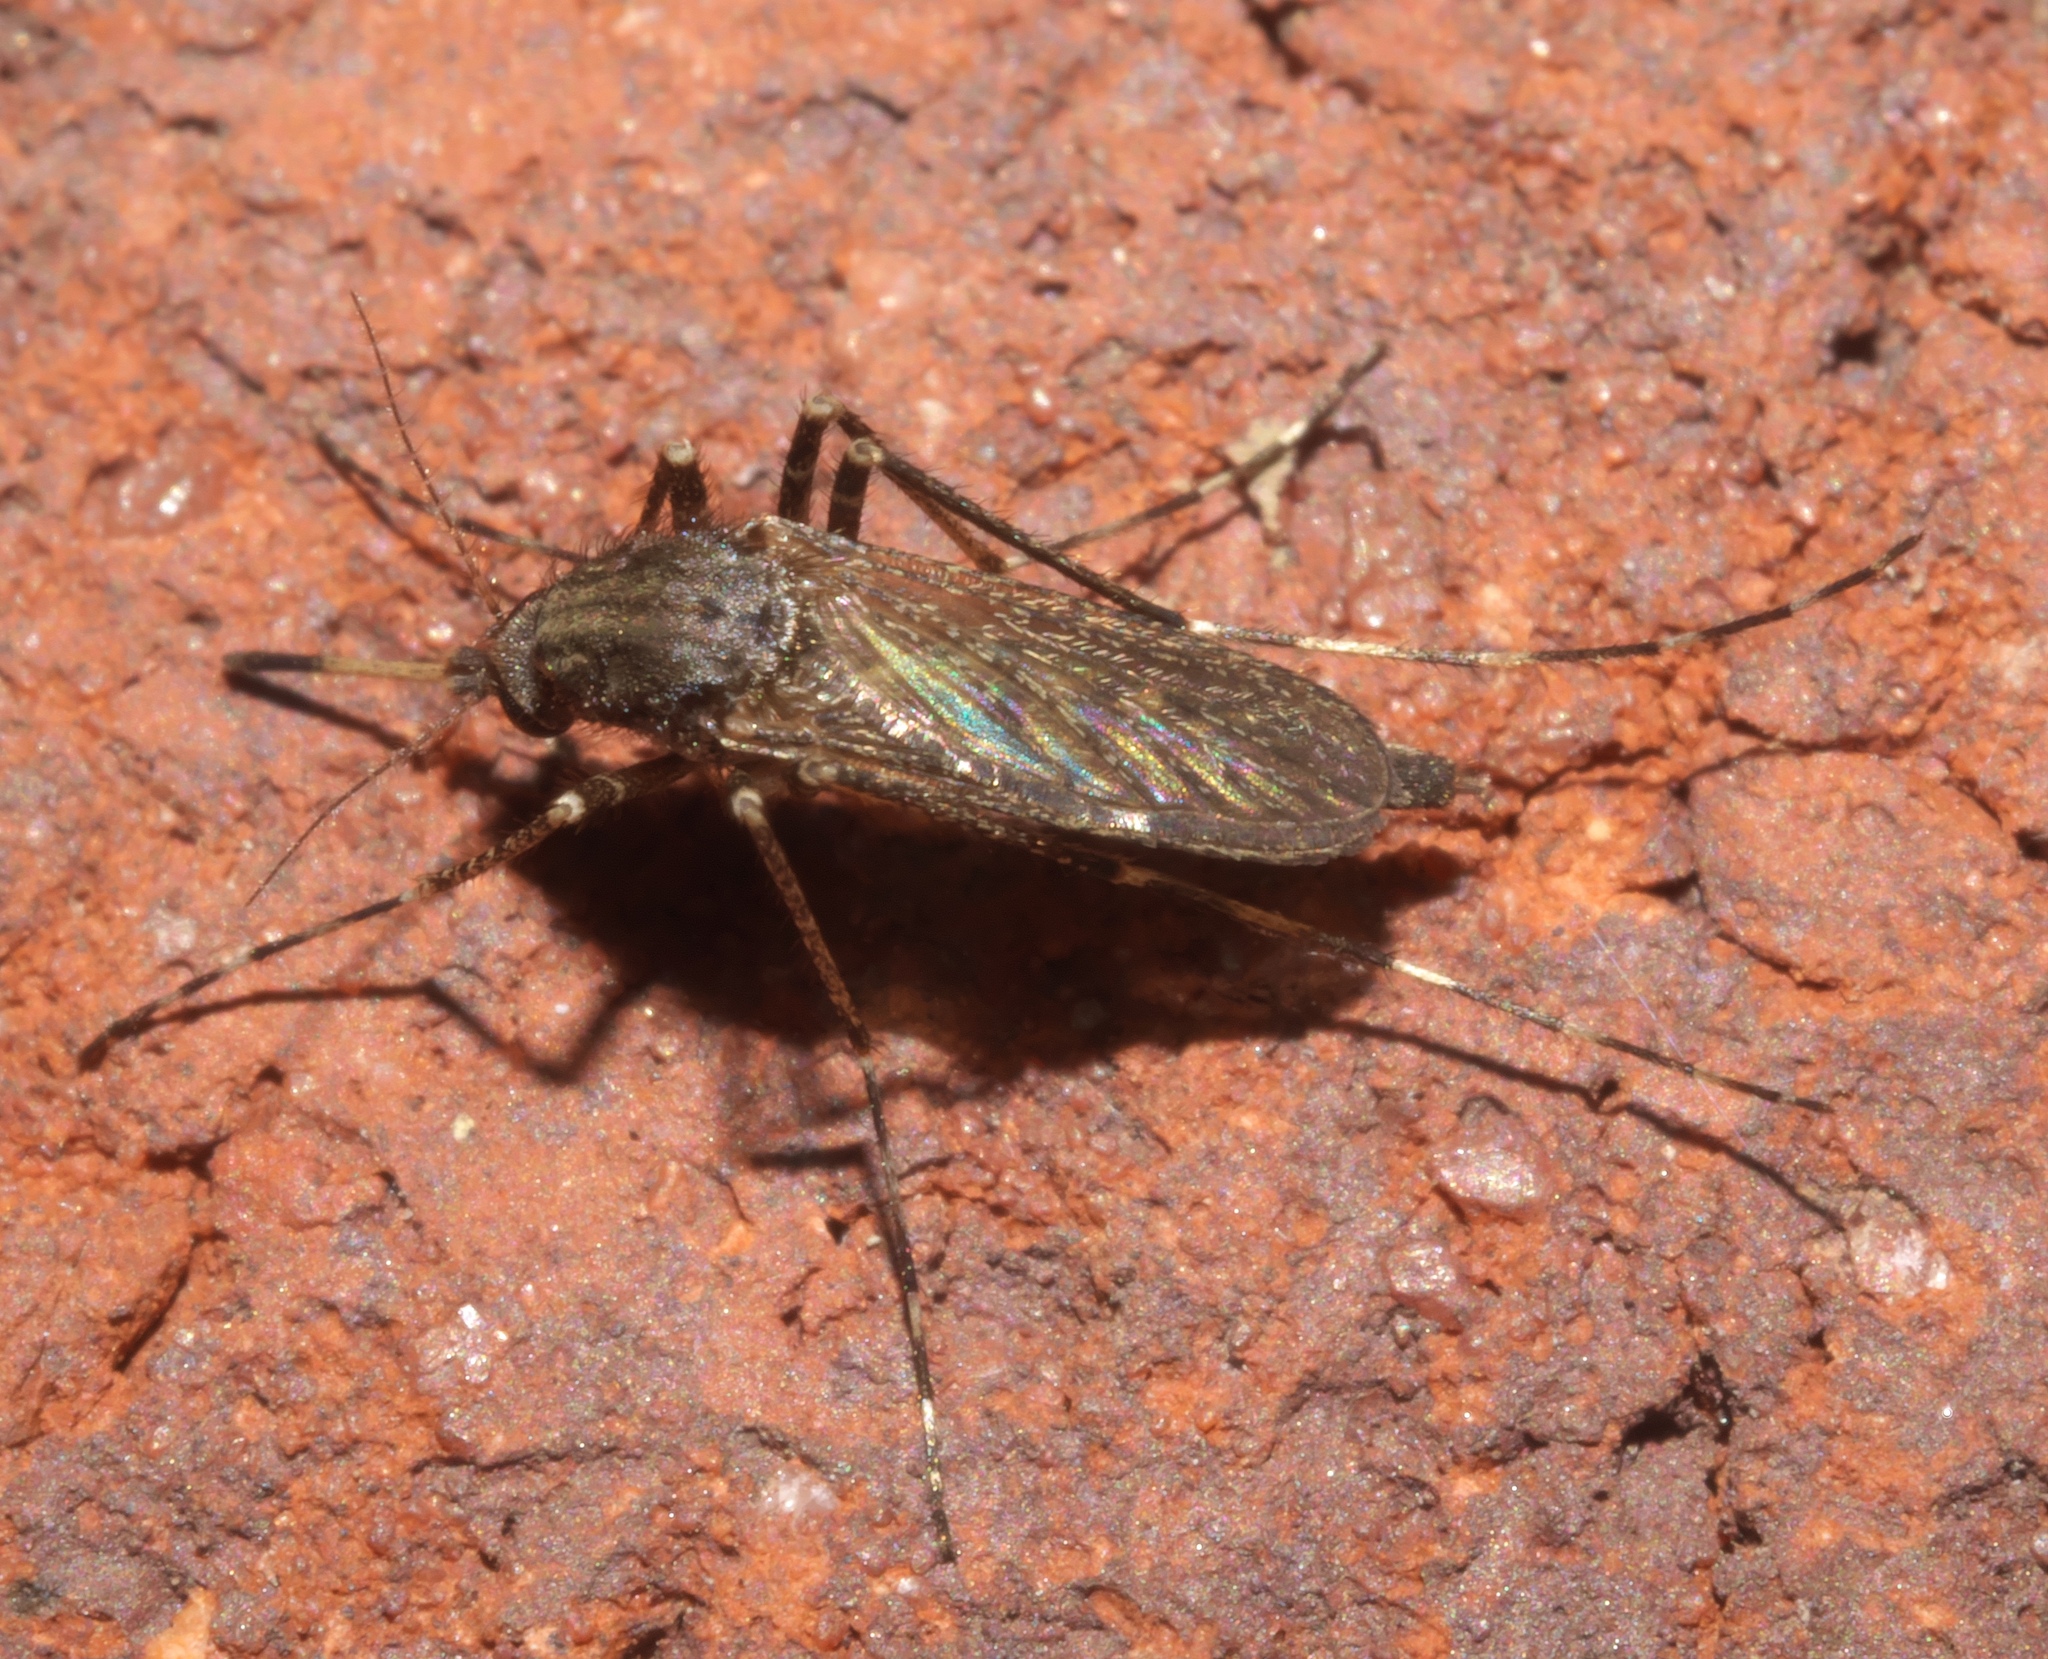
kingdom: Animalia
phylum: Arthropoda
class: Insecta
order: Diptera
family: Culicidae
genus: Psorophora
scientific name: Psorophora columbiae
